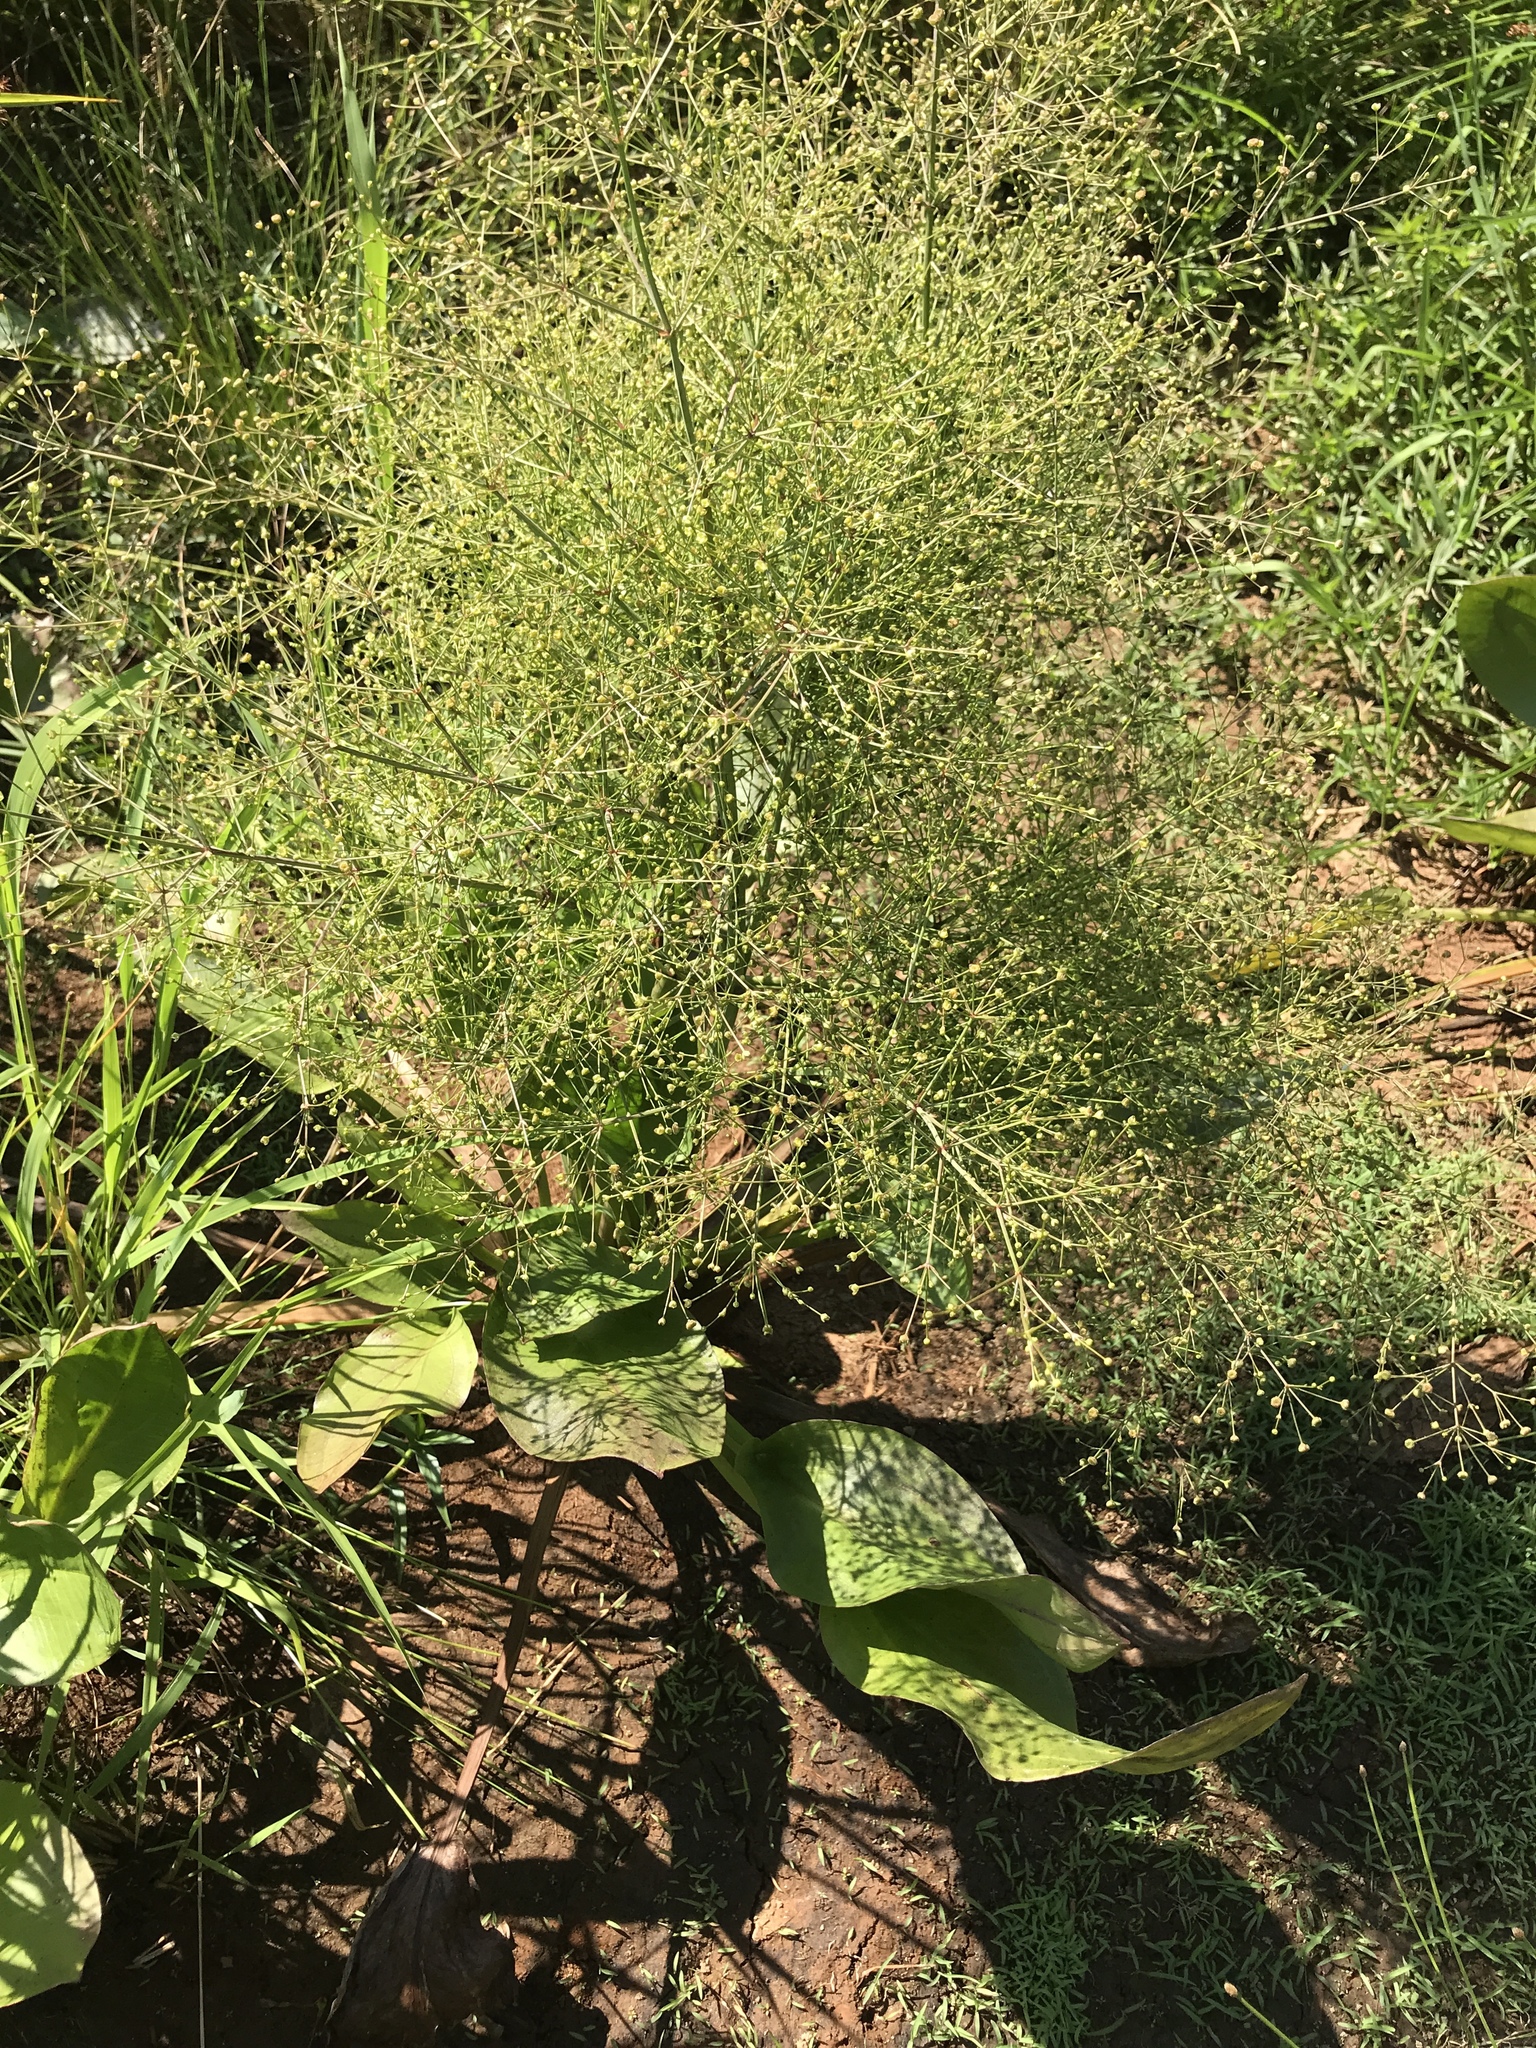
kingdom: Plantae
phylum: Tracheophyta
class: Liliopsida
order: Alismatales
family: Alismataceae
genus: Alisma
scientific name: Alisma subcordatum
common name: Southern water-plantain
